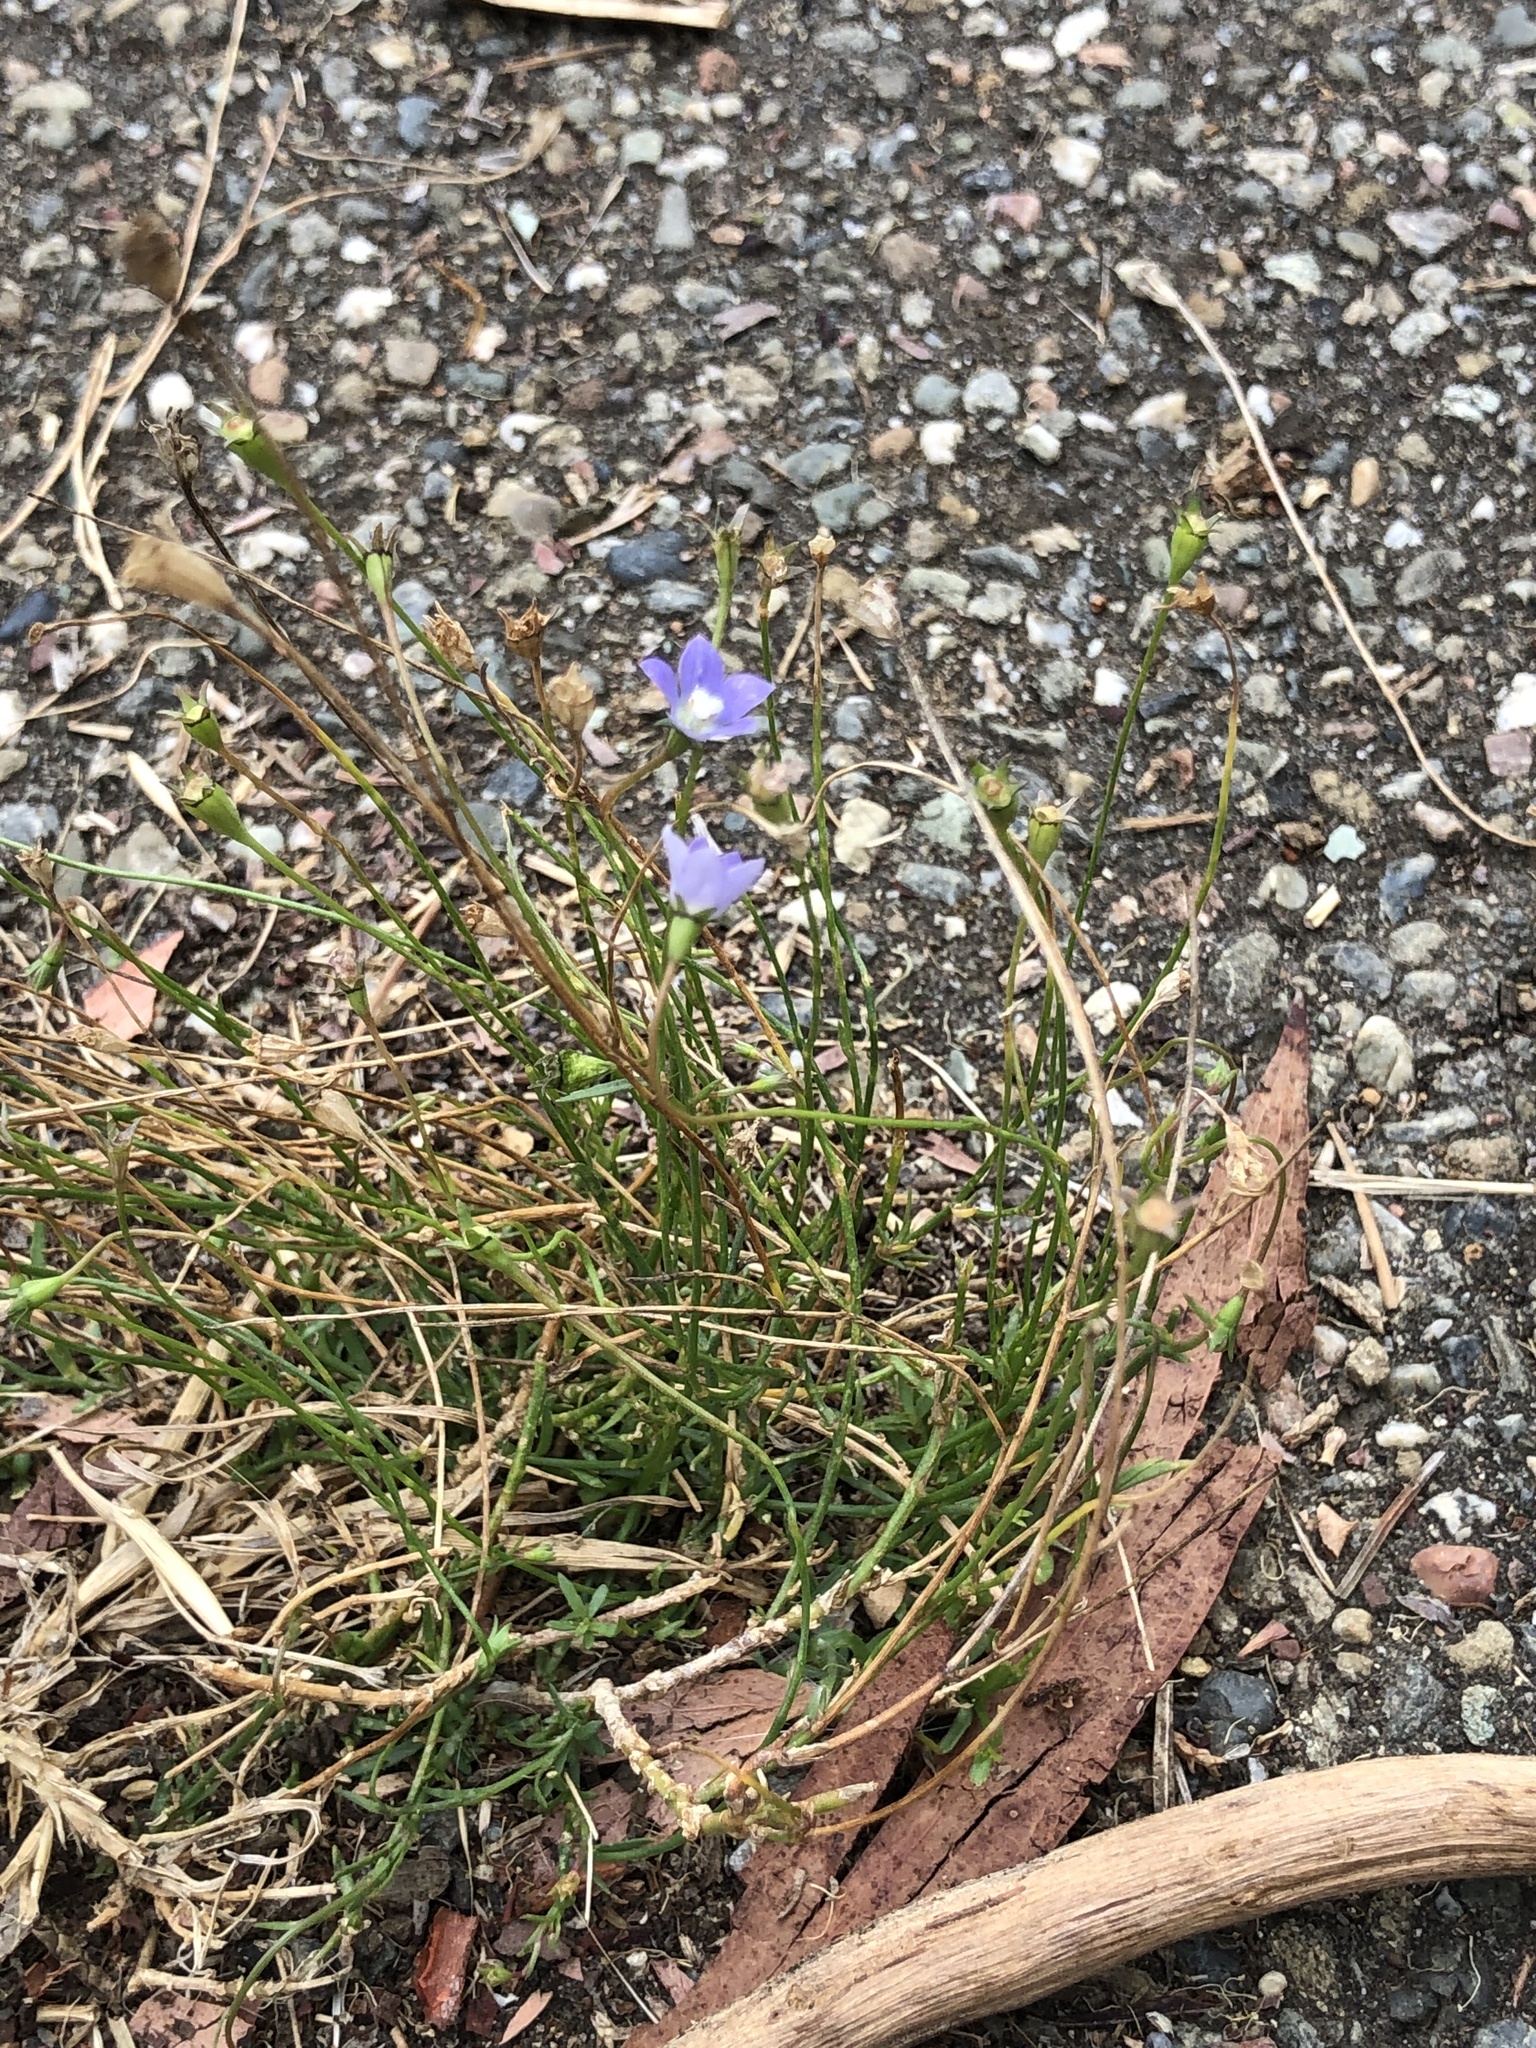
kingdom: Plantae
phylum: Tracheophyta
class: Magnoliopsida
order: Asterales
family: Campanulaceae
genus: Wahlenbergia
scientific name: Wahlenbergia marginata
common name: Southern rockbell
